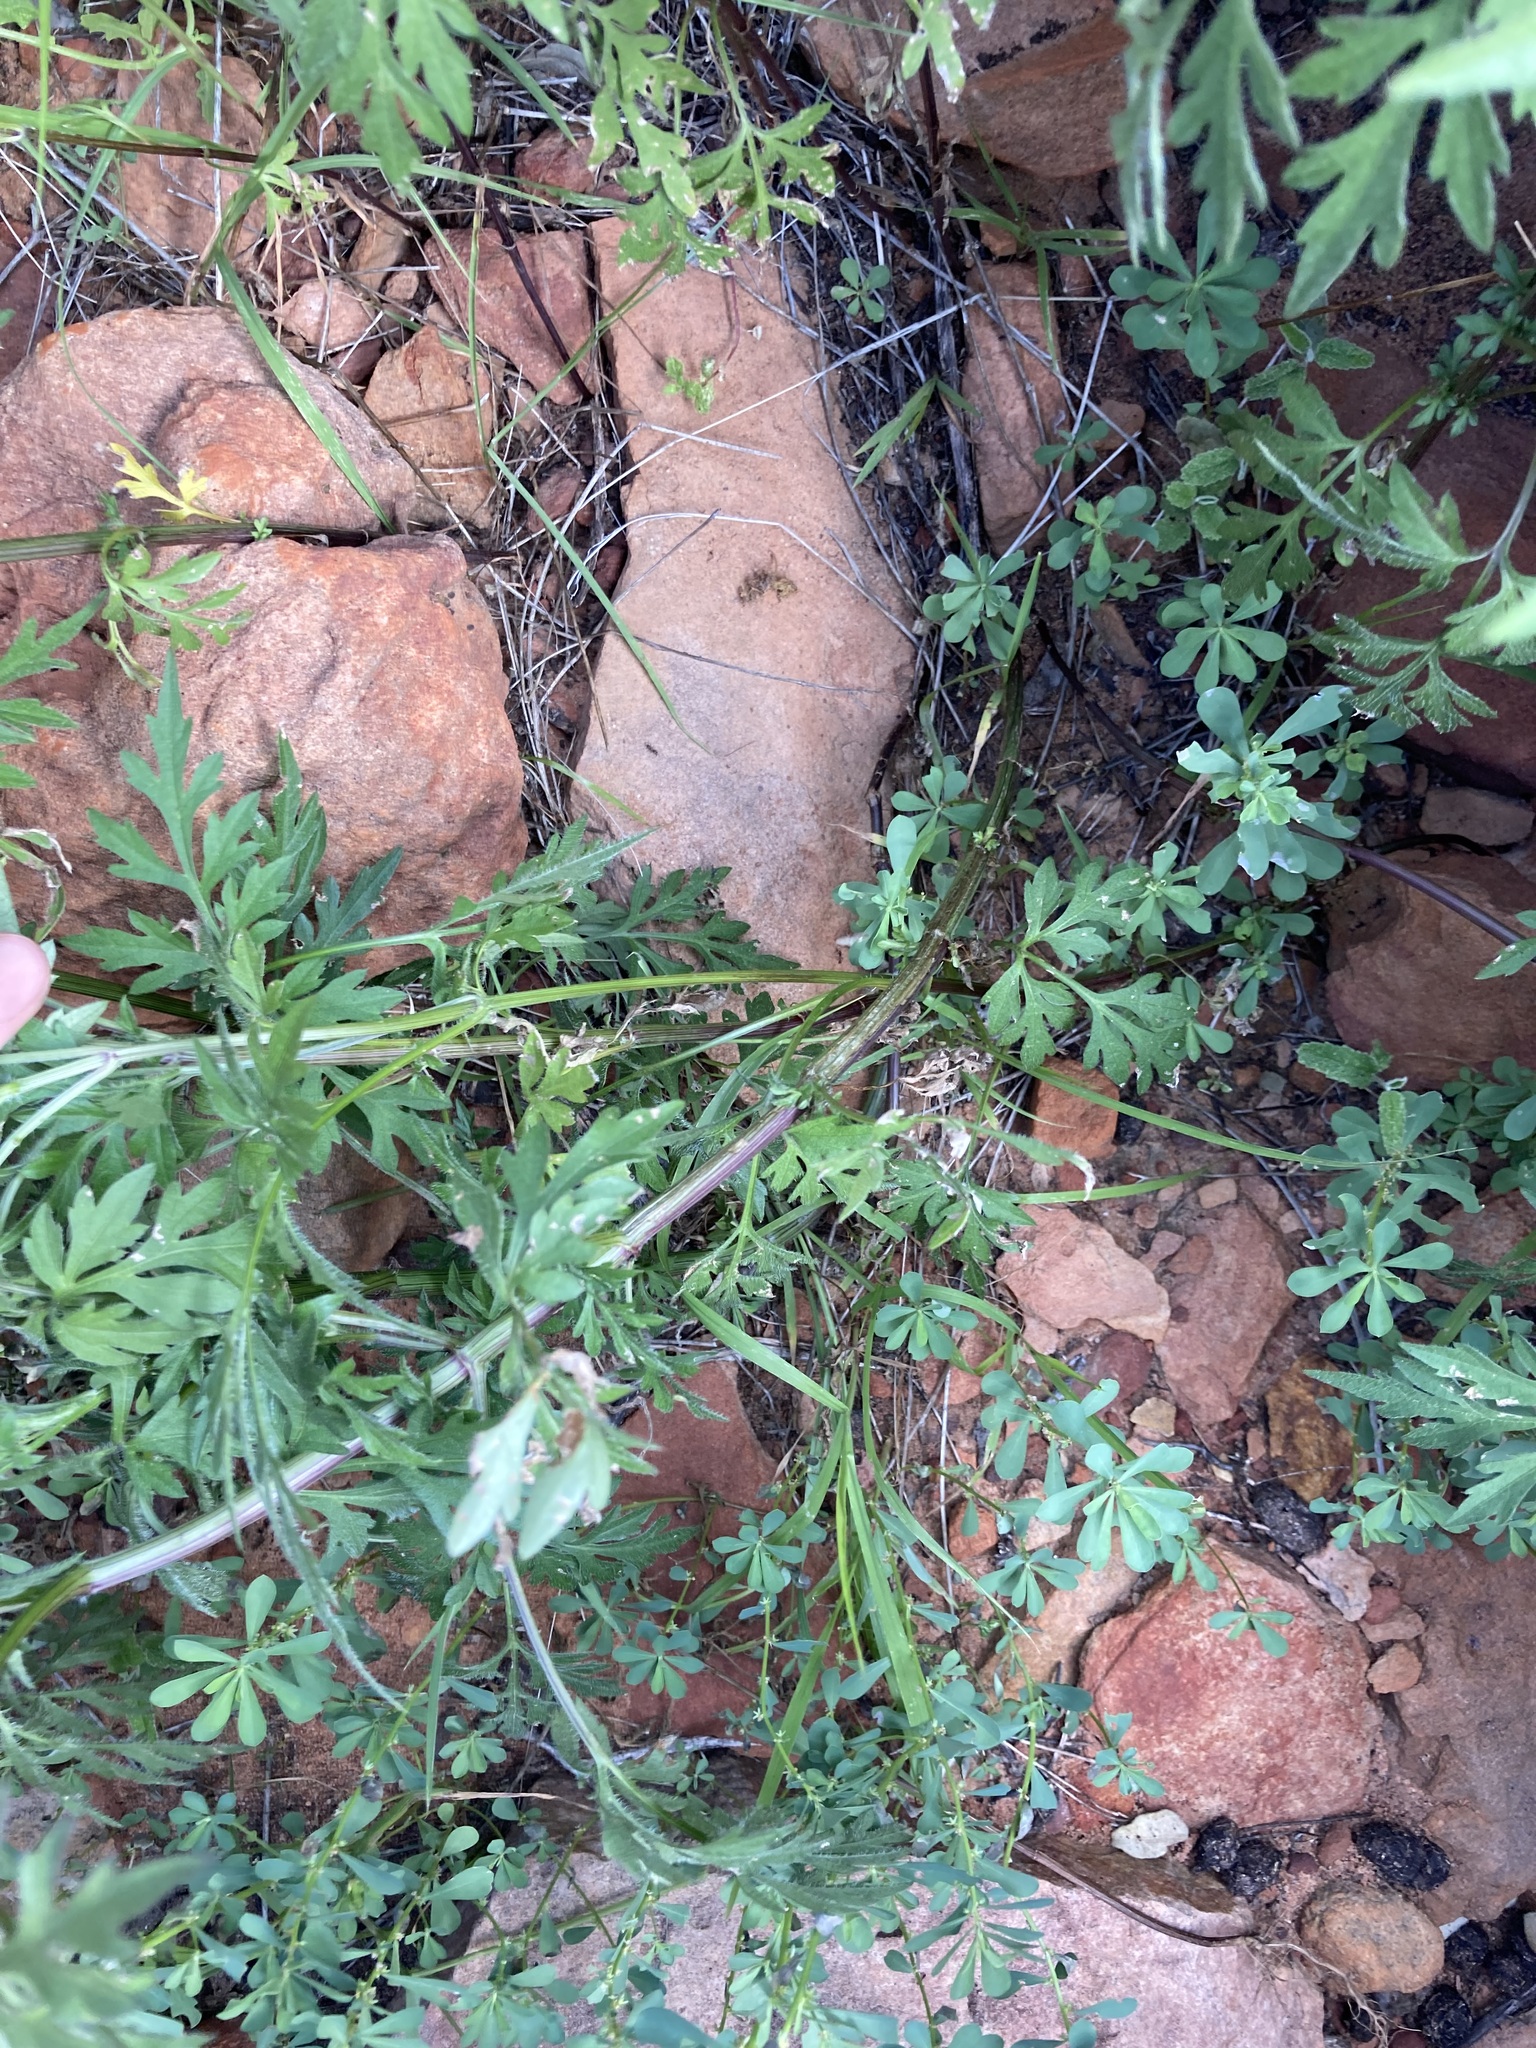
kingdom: Plantae
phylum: Tracheophyta
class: Magnoliopsida
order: Asterales
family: Asteraceae
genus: Bidens
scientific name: Bidens bipinnata
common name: Spanish-needles
